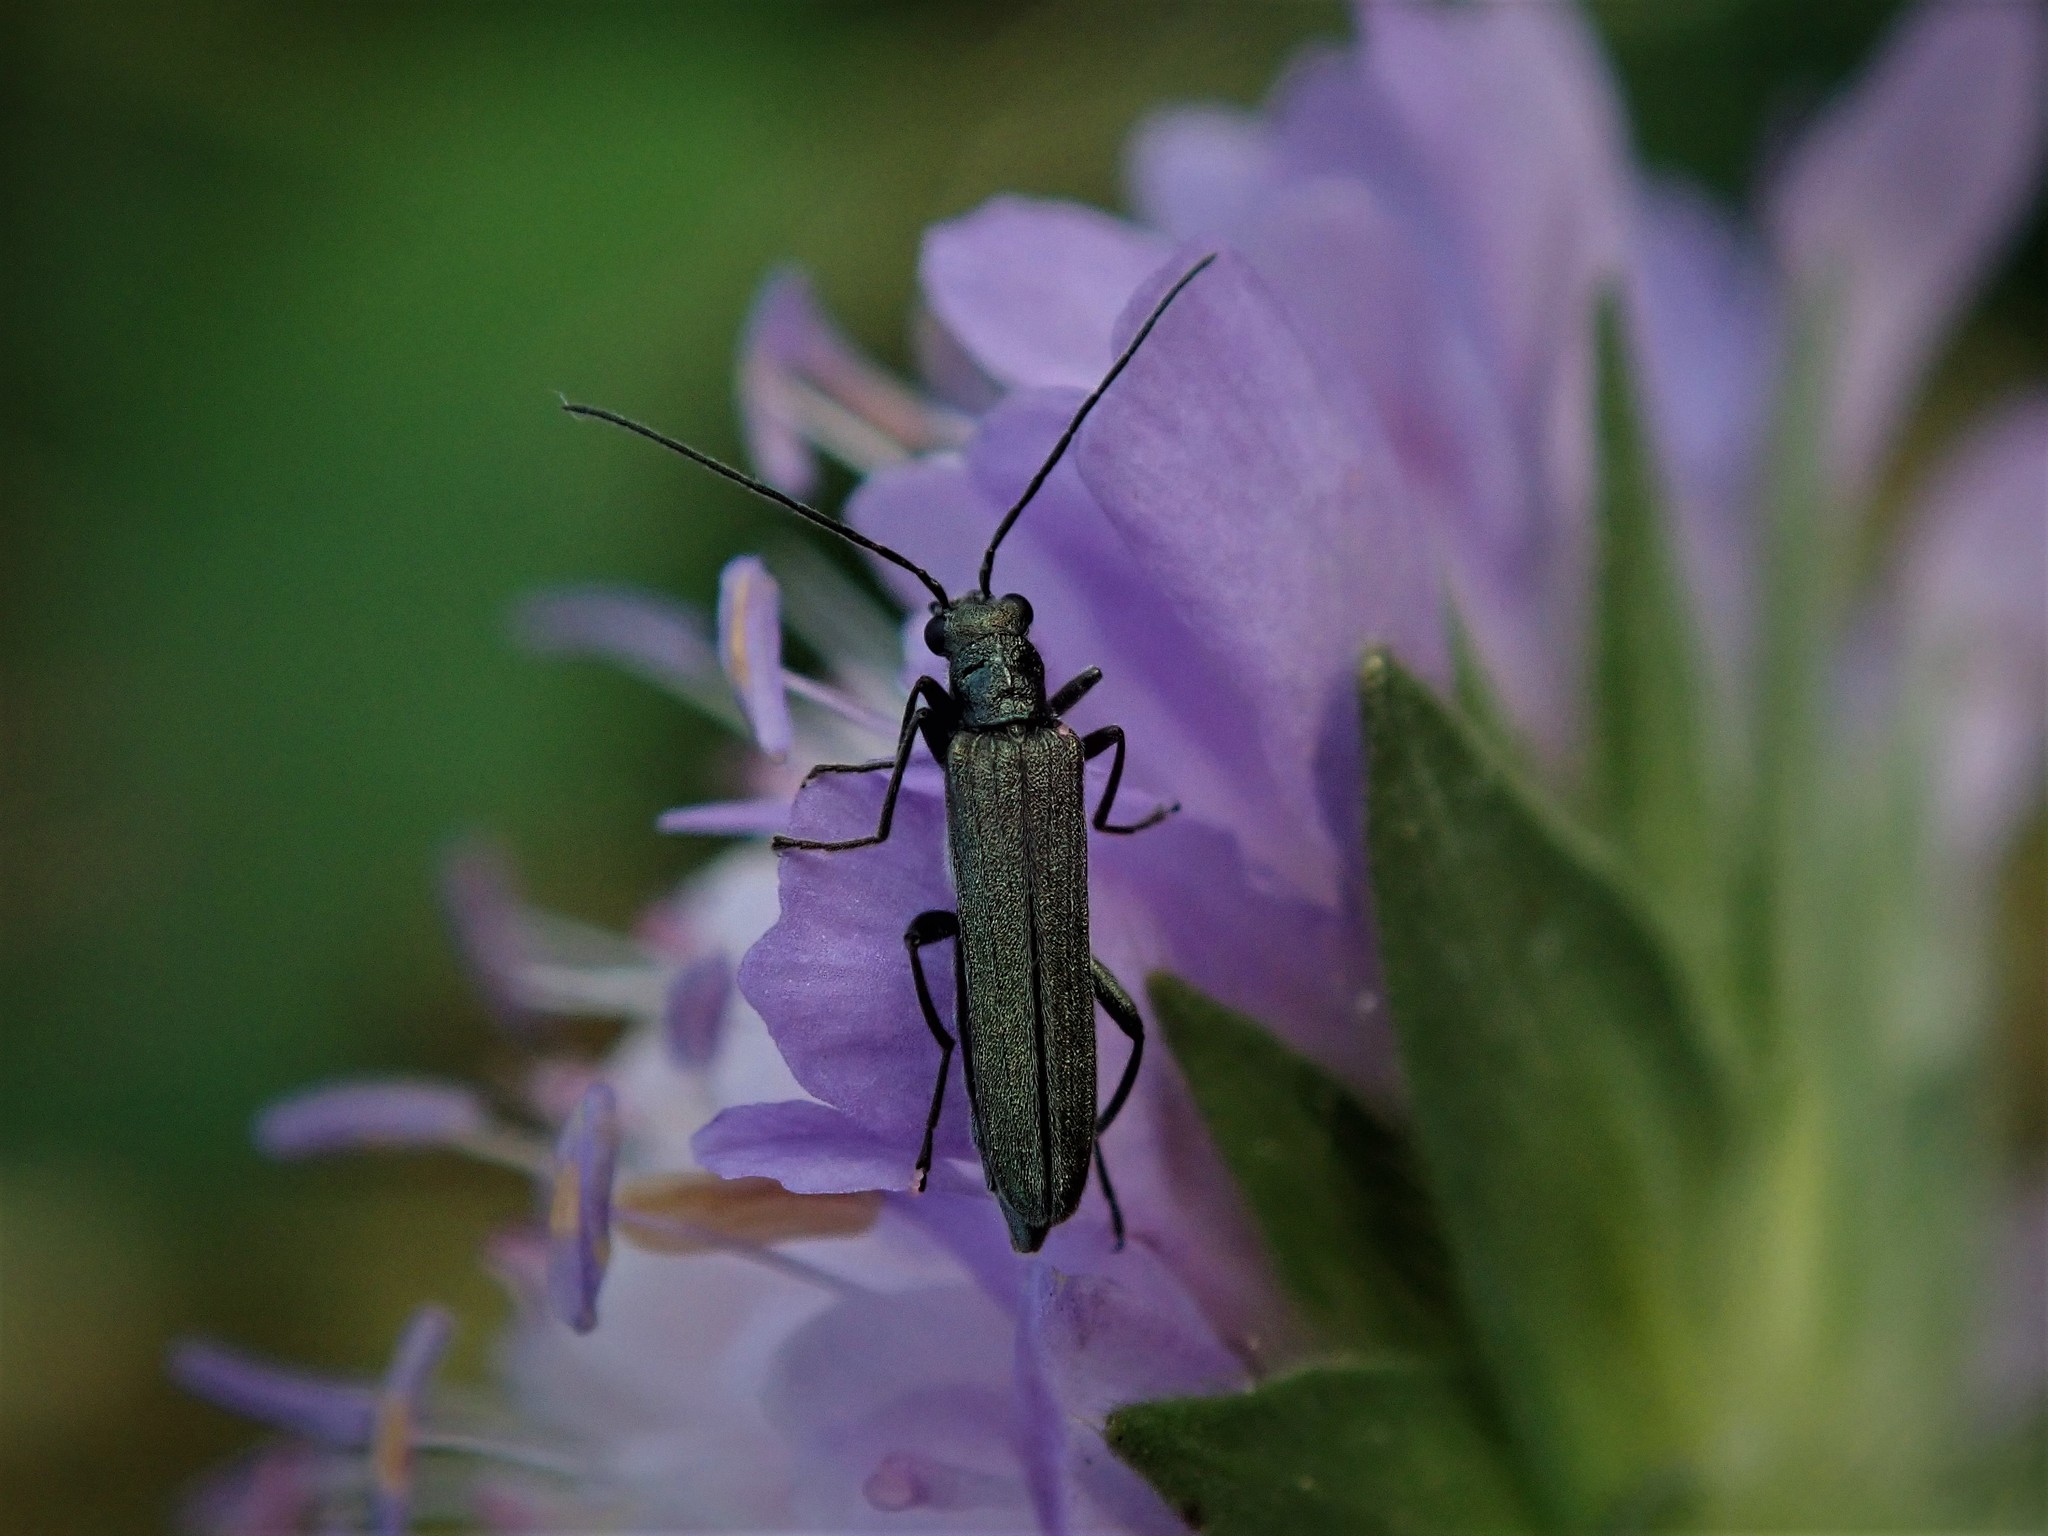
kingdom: Animalia
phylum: Arthropoda
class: Insecta
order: Coleoptera
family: Oedemeridae
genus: Oedemera
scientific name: Oedemera nobilis
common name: Swollen-thighed beetle
